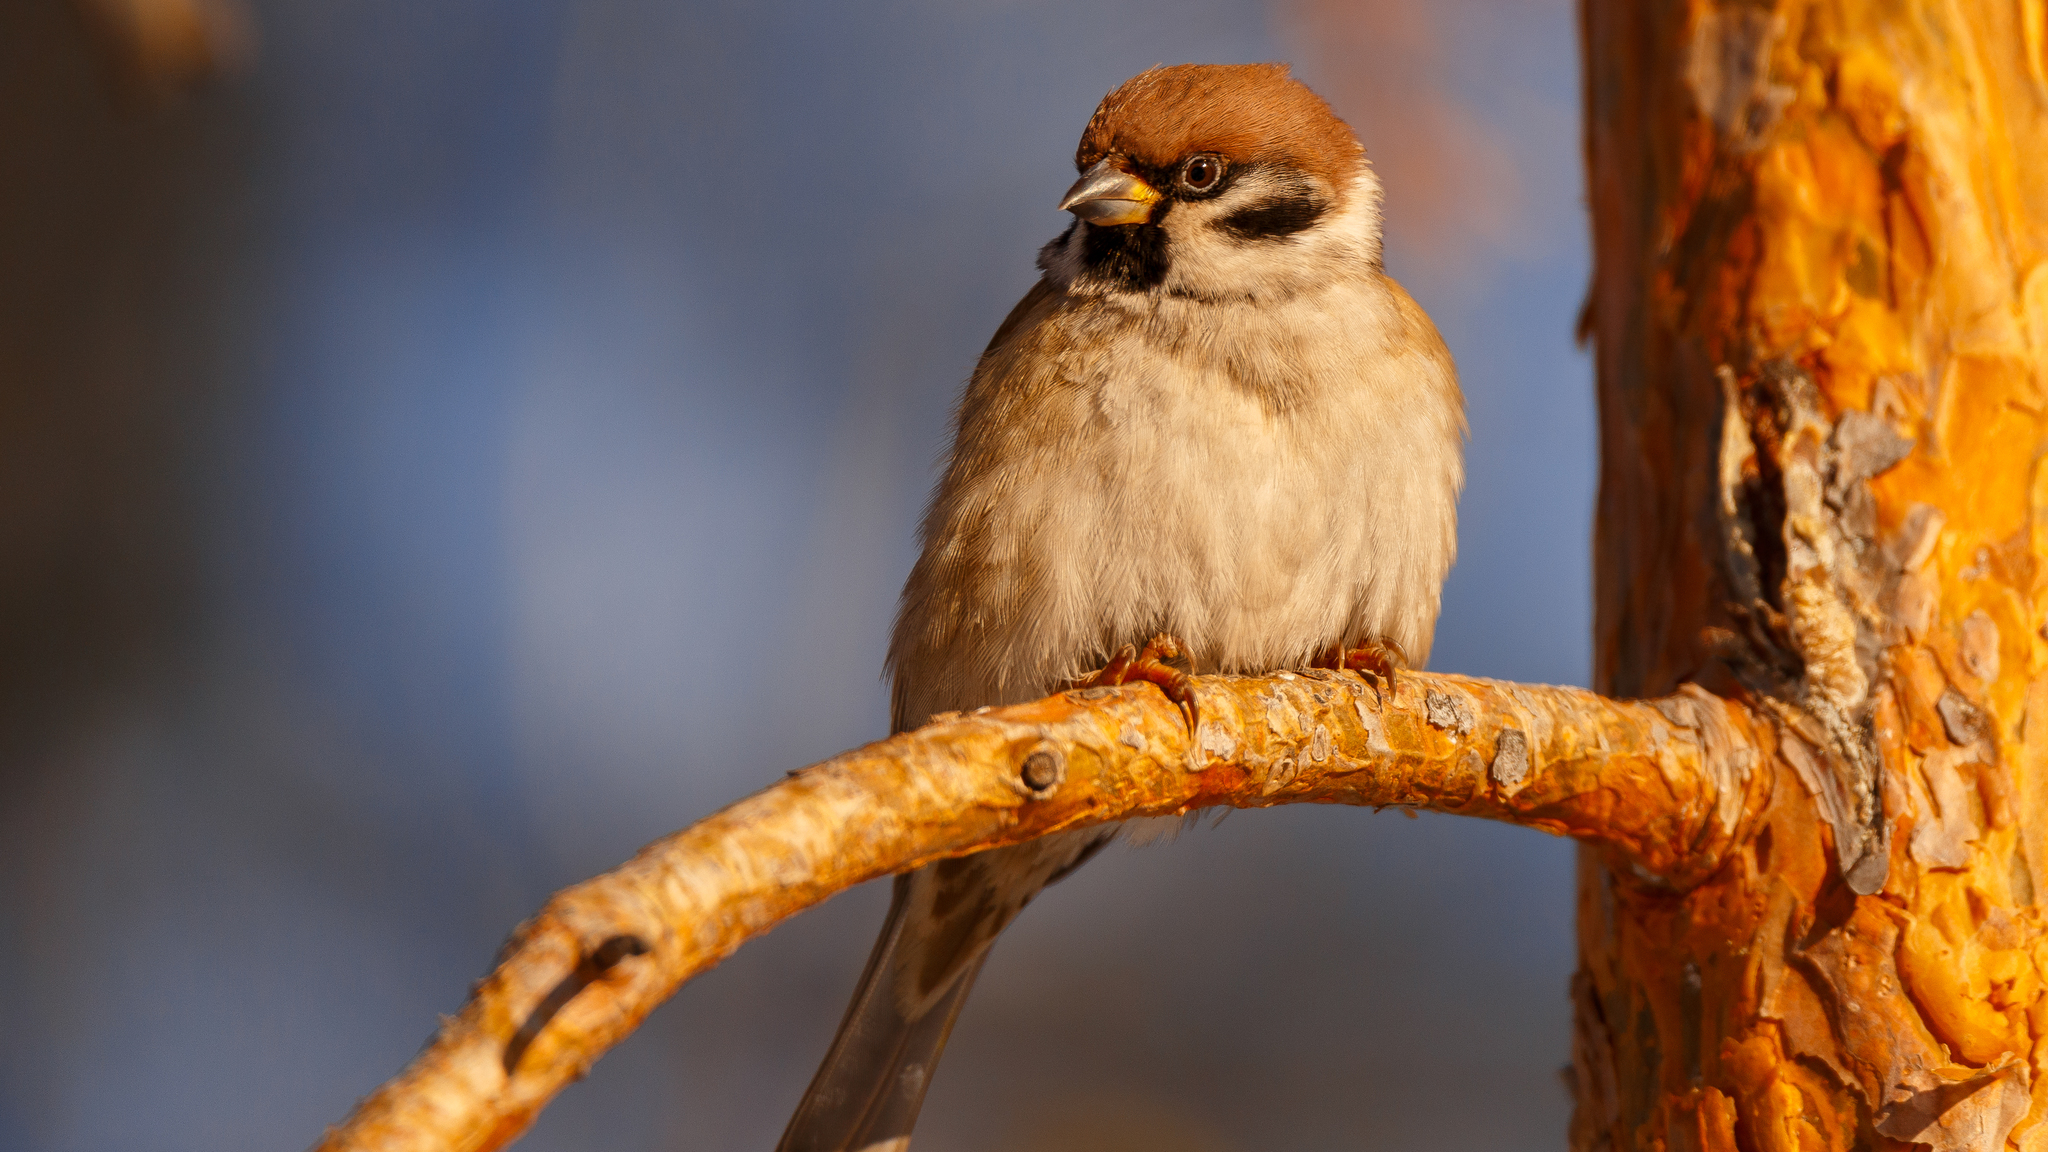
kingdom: Animalia
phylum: Chordata
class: Aves
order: Passeriformes
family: Passeridae
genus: Passer
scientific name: Passer montanus
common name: Eurasian tree sparrow
